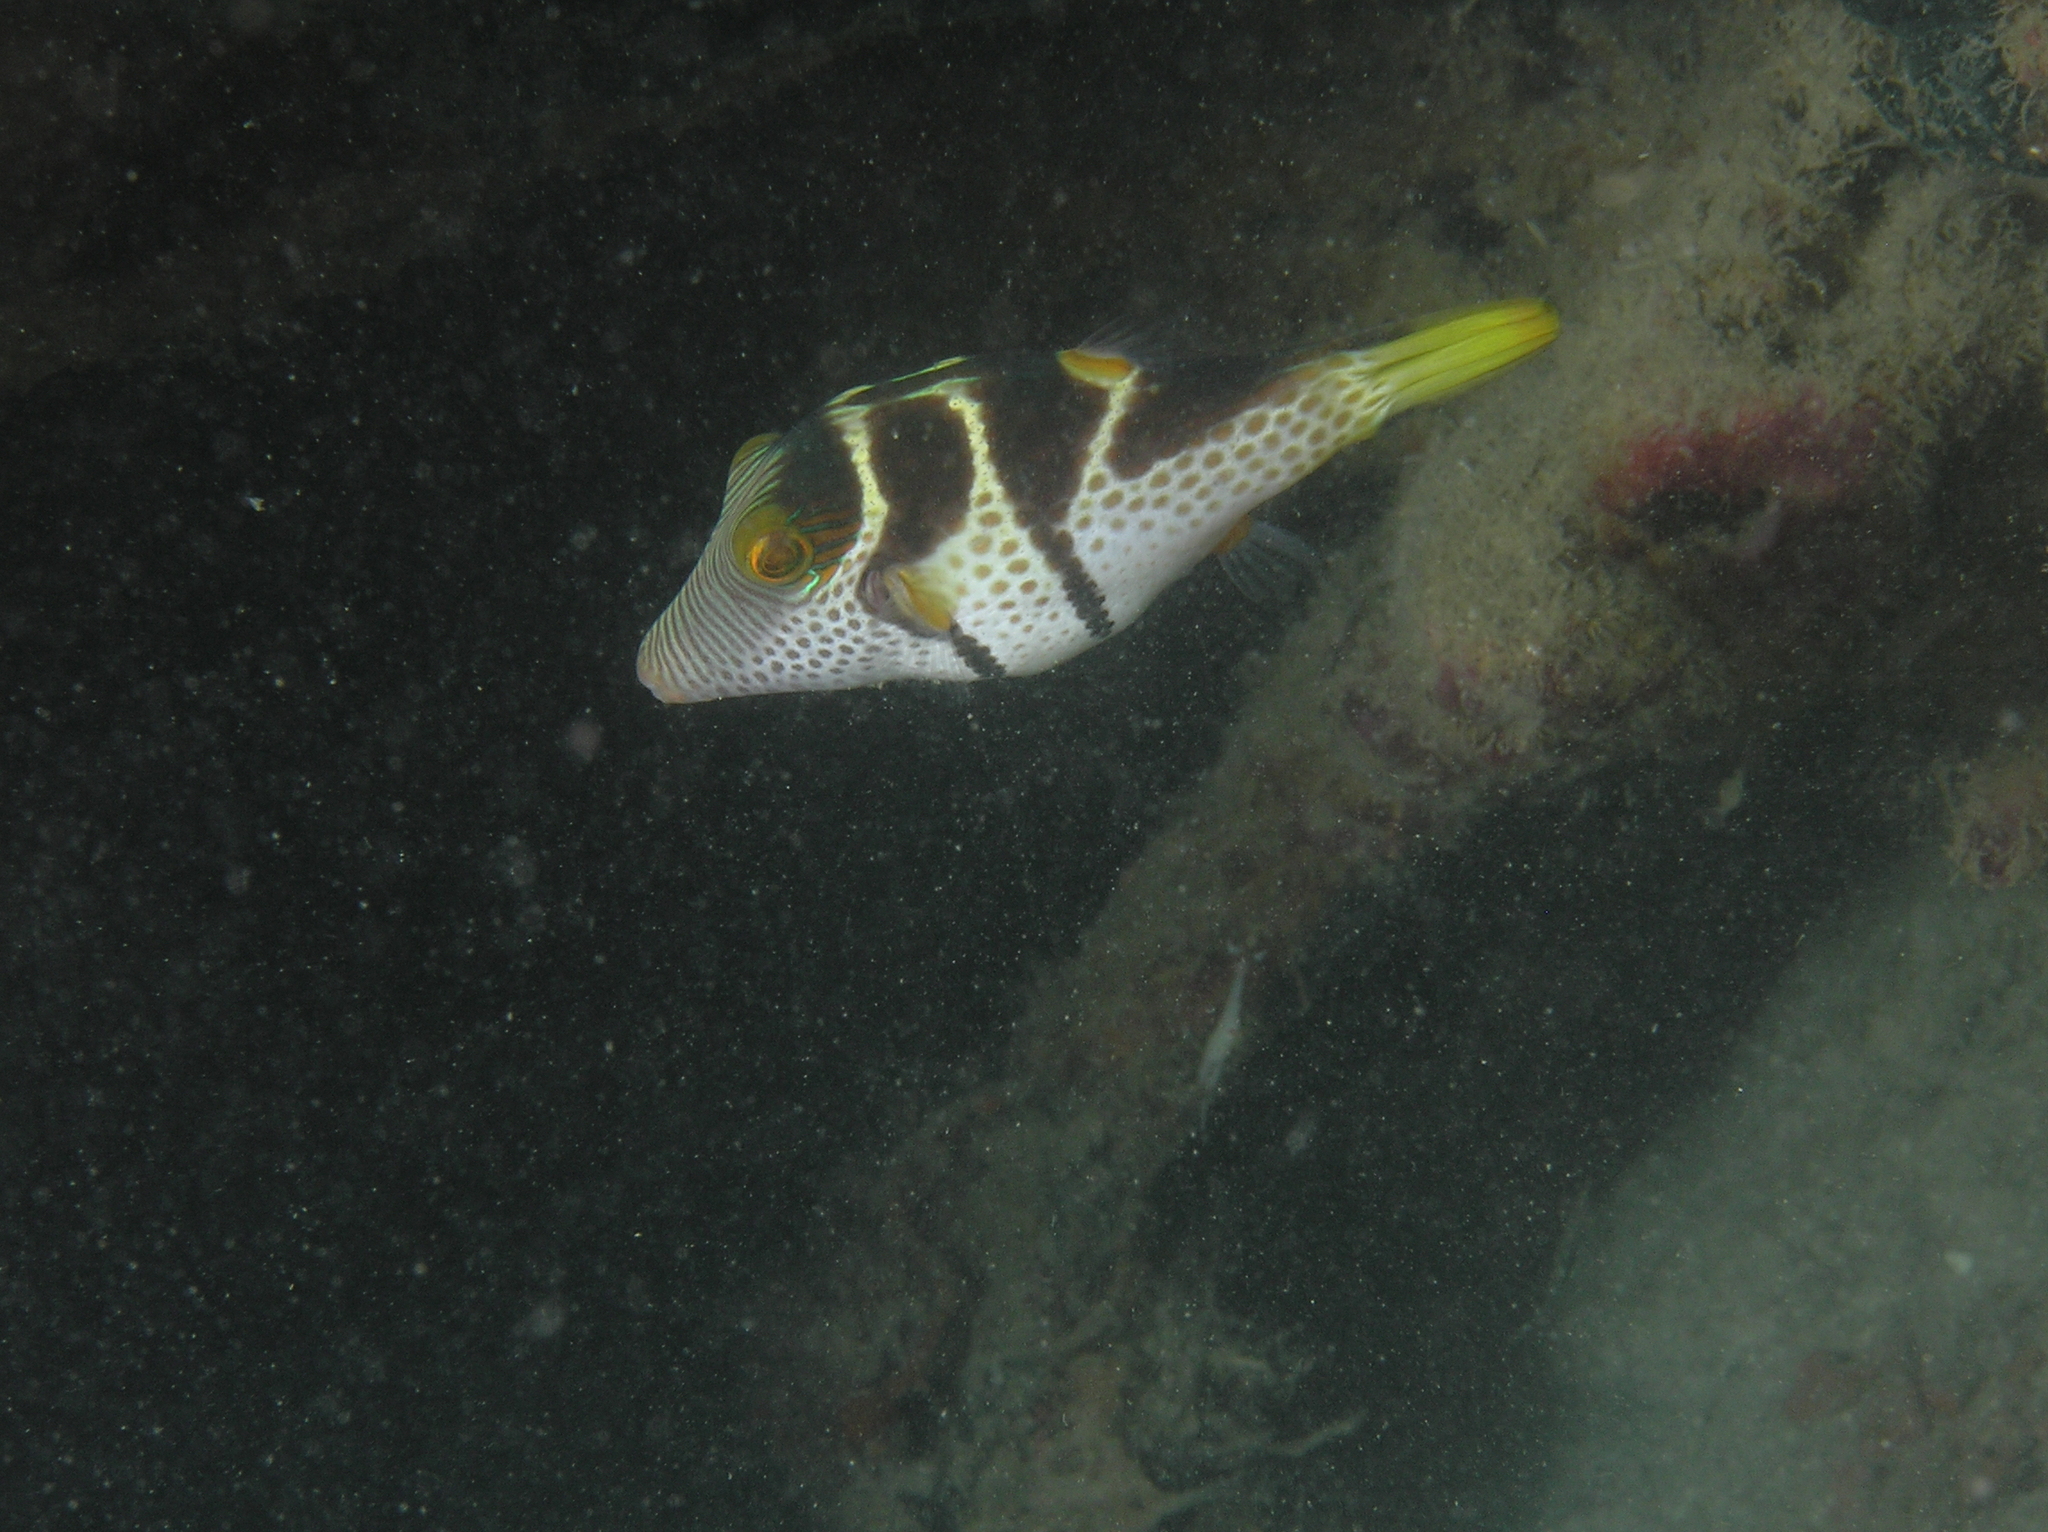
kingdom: Animalia
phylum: Chordata
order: Tetraodontiformes
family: Tetraodontidae
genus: Canthigaster
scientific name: Canthigaster valentini
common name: Banded toby
